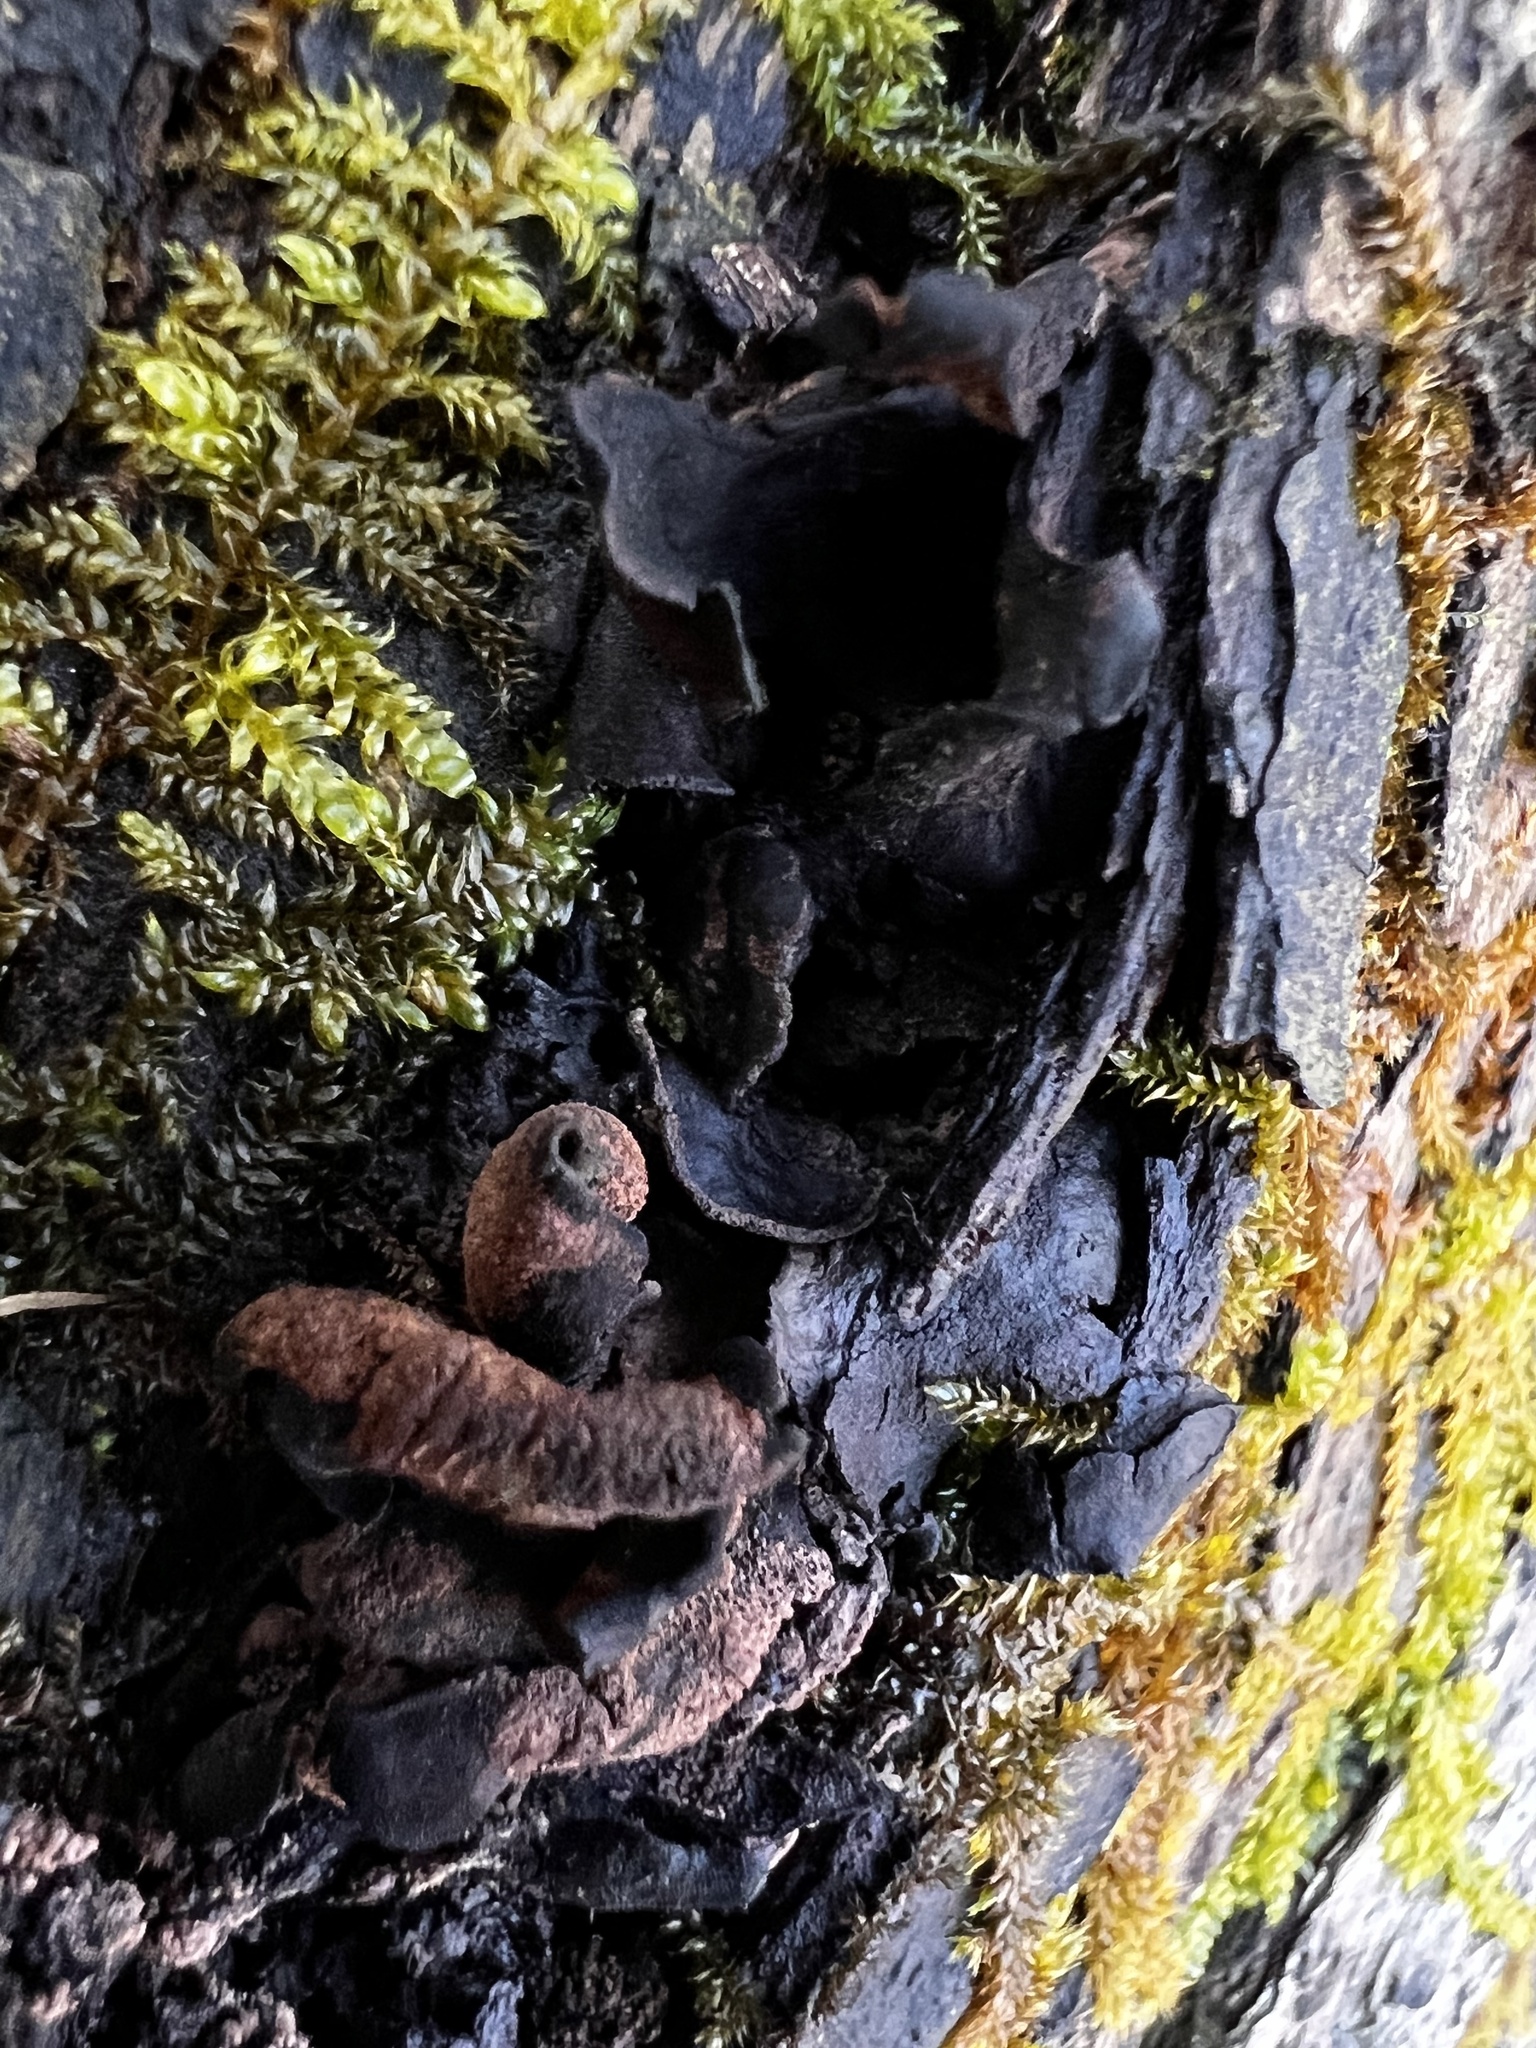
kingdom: Fungi
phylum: Ascomycota
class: Leotiomycetes
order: Helotiales
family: Cordieritidaceae
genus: Diplocarpa
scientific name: Diplocarpa irregularis
